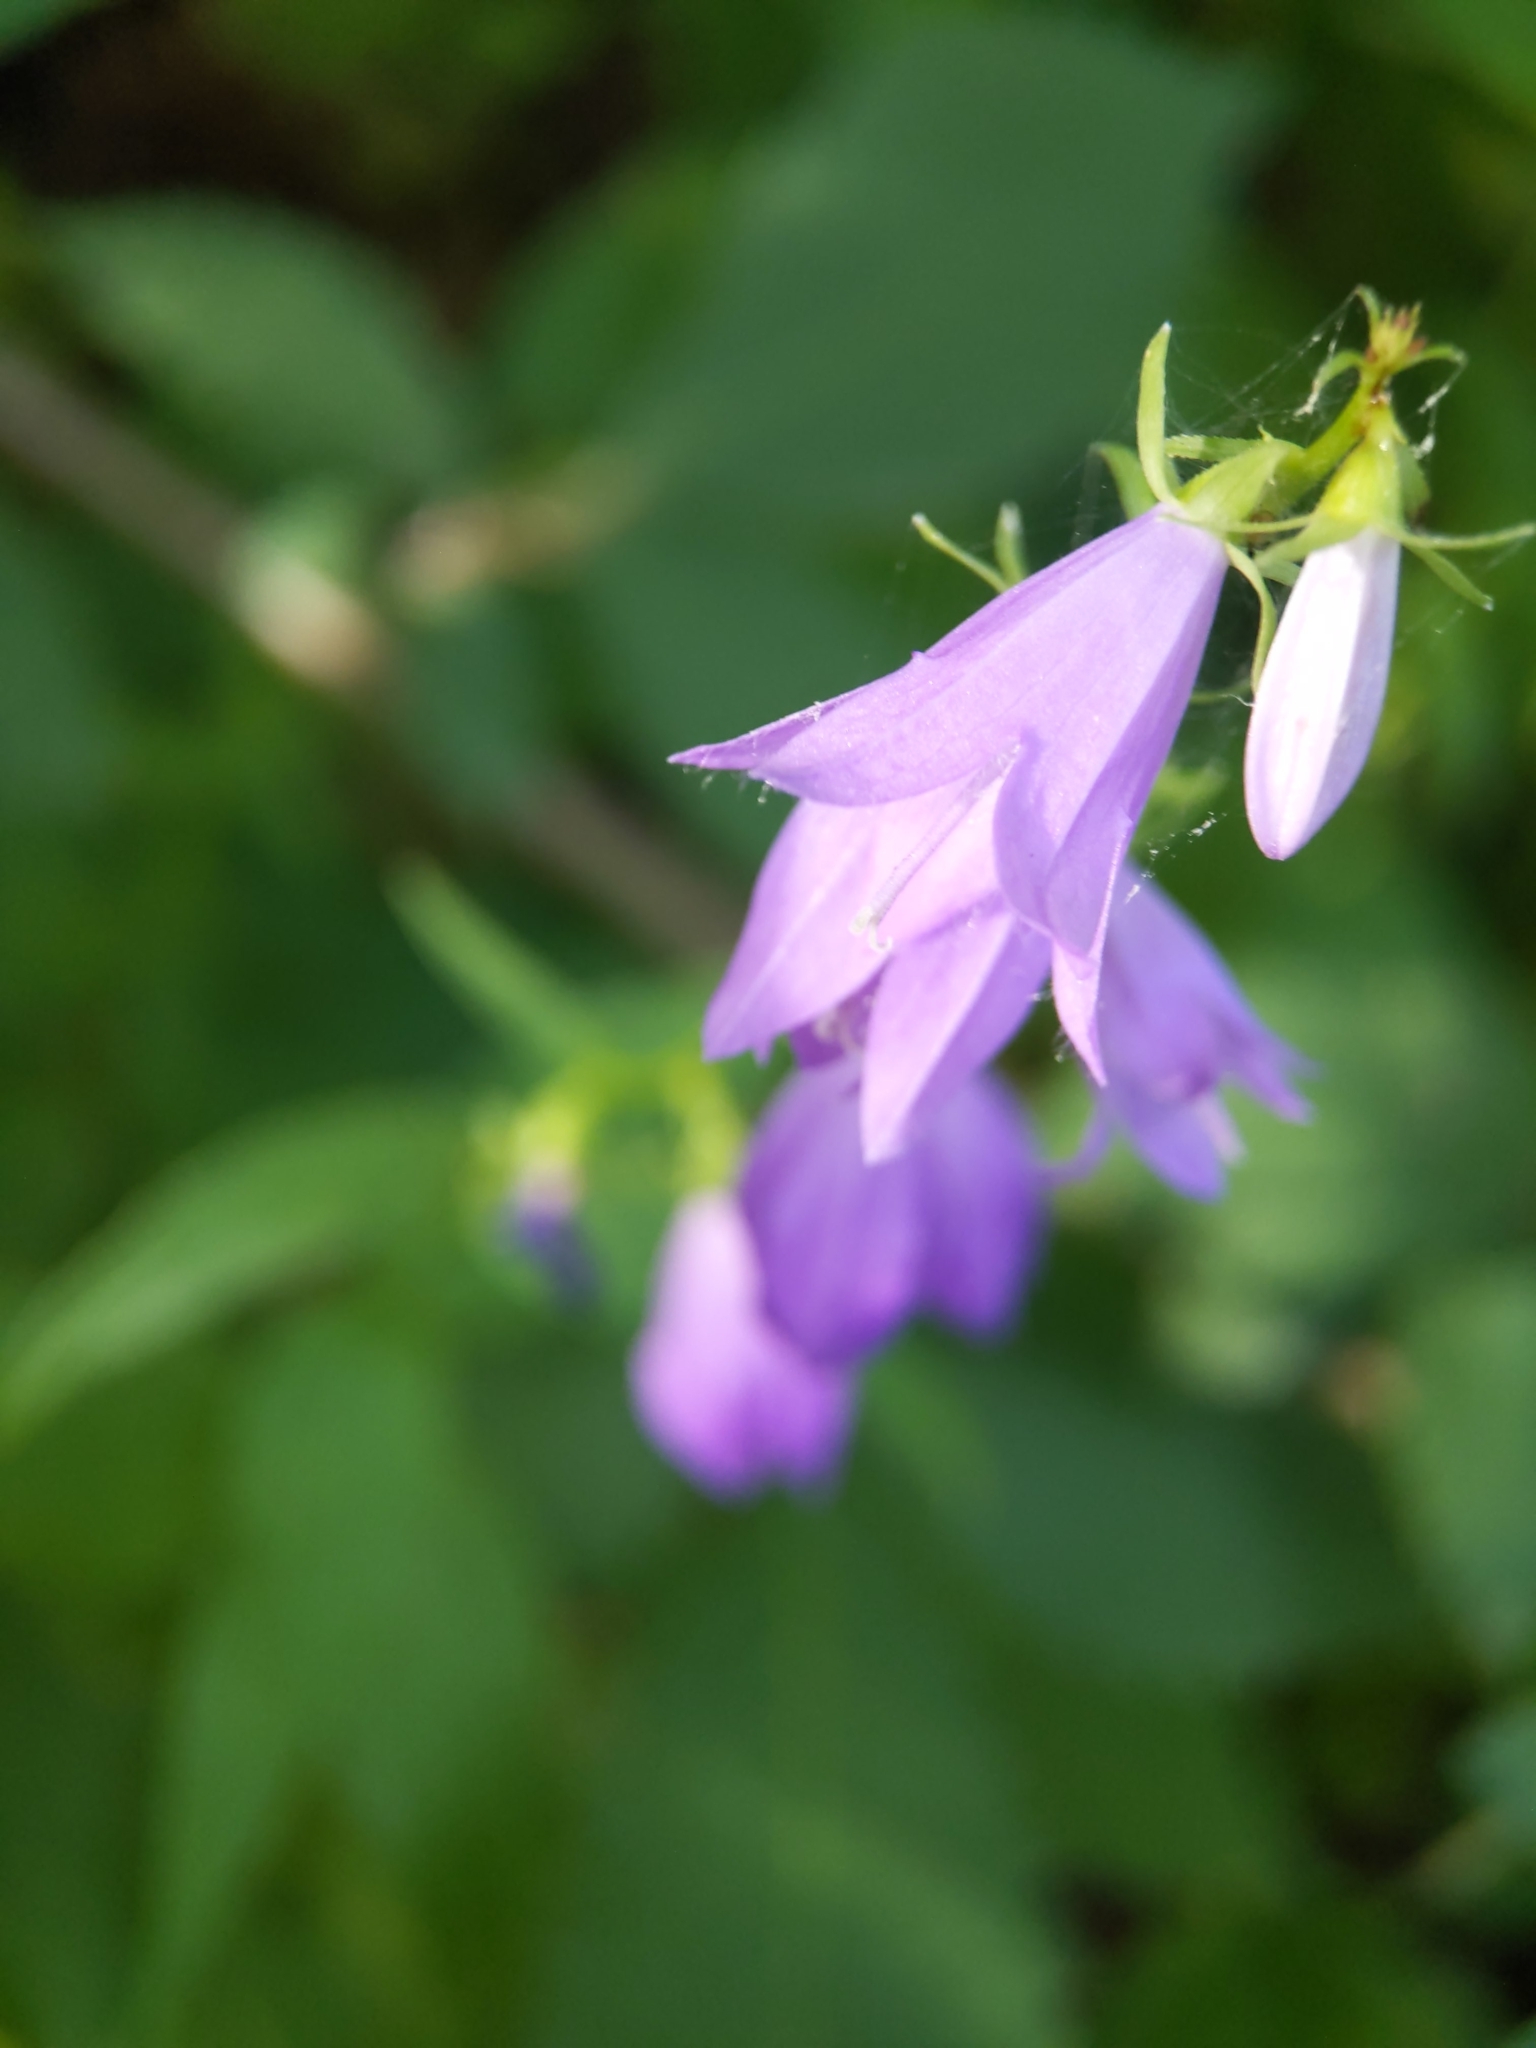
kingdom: Plantae
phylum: Tracheophyta
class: Magnoliopsida
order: Asterales
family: Campanulaceae
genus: Campanula
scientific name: Campanula rapunculoides
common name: Creeping bellflower
